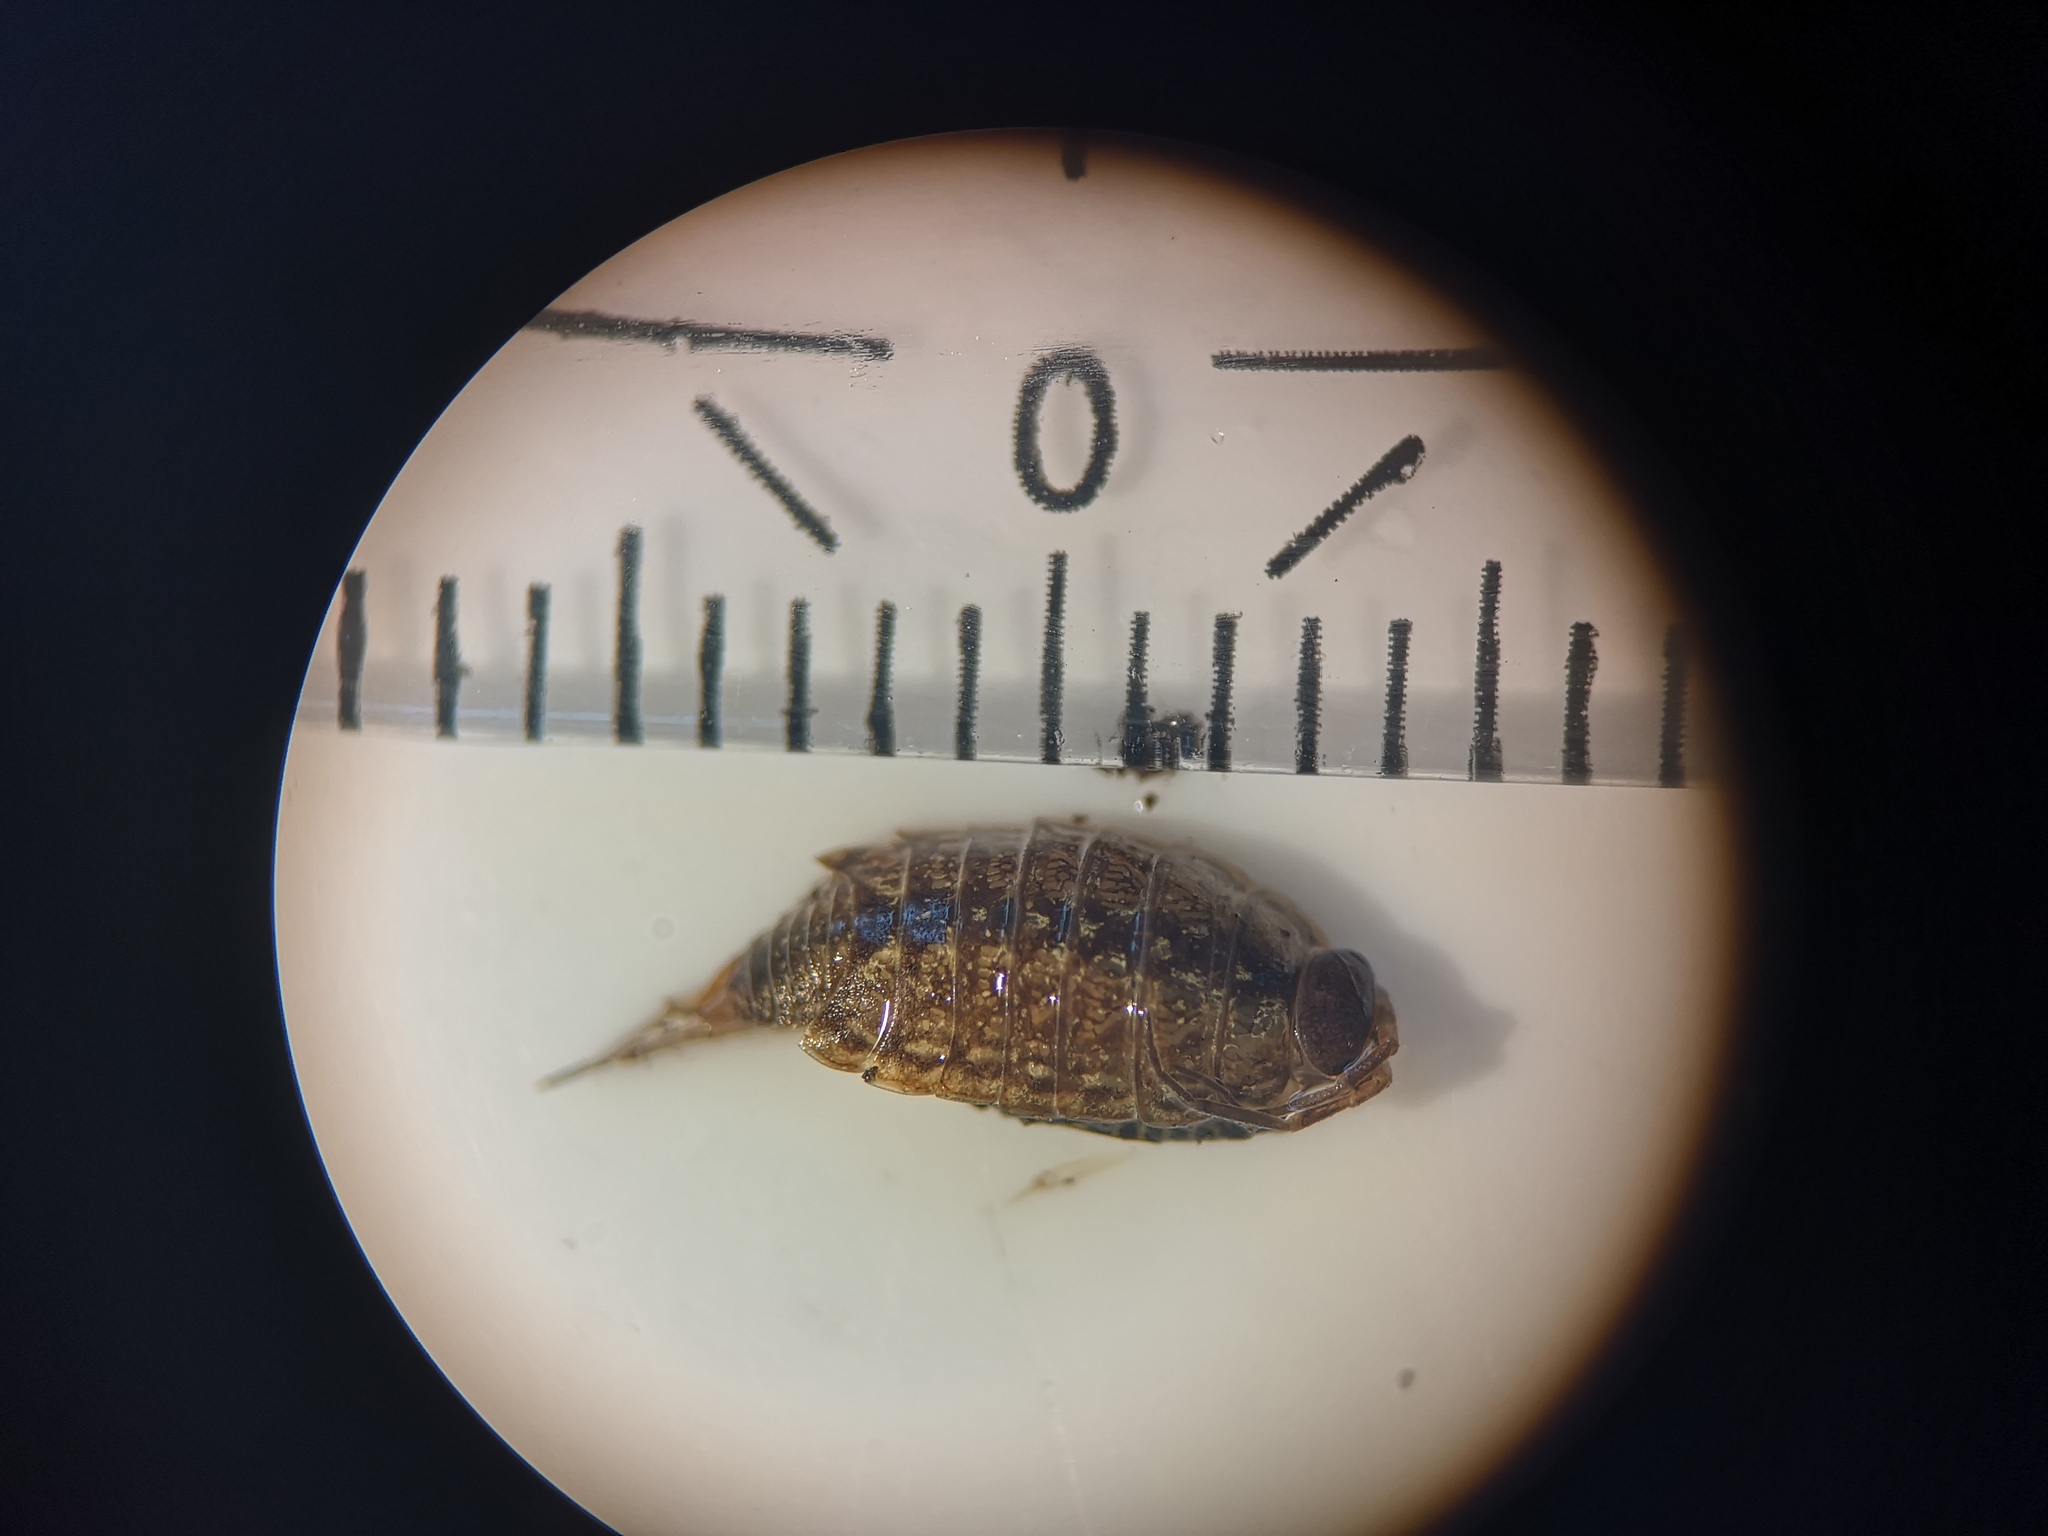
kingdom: Animalia
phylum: Arthropoda
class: Malacostraca
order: Isopoda
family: Philosciidae
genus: Philoscia
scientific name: Philoscia muscorum
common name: Common striped woodlouse
